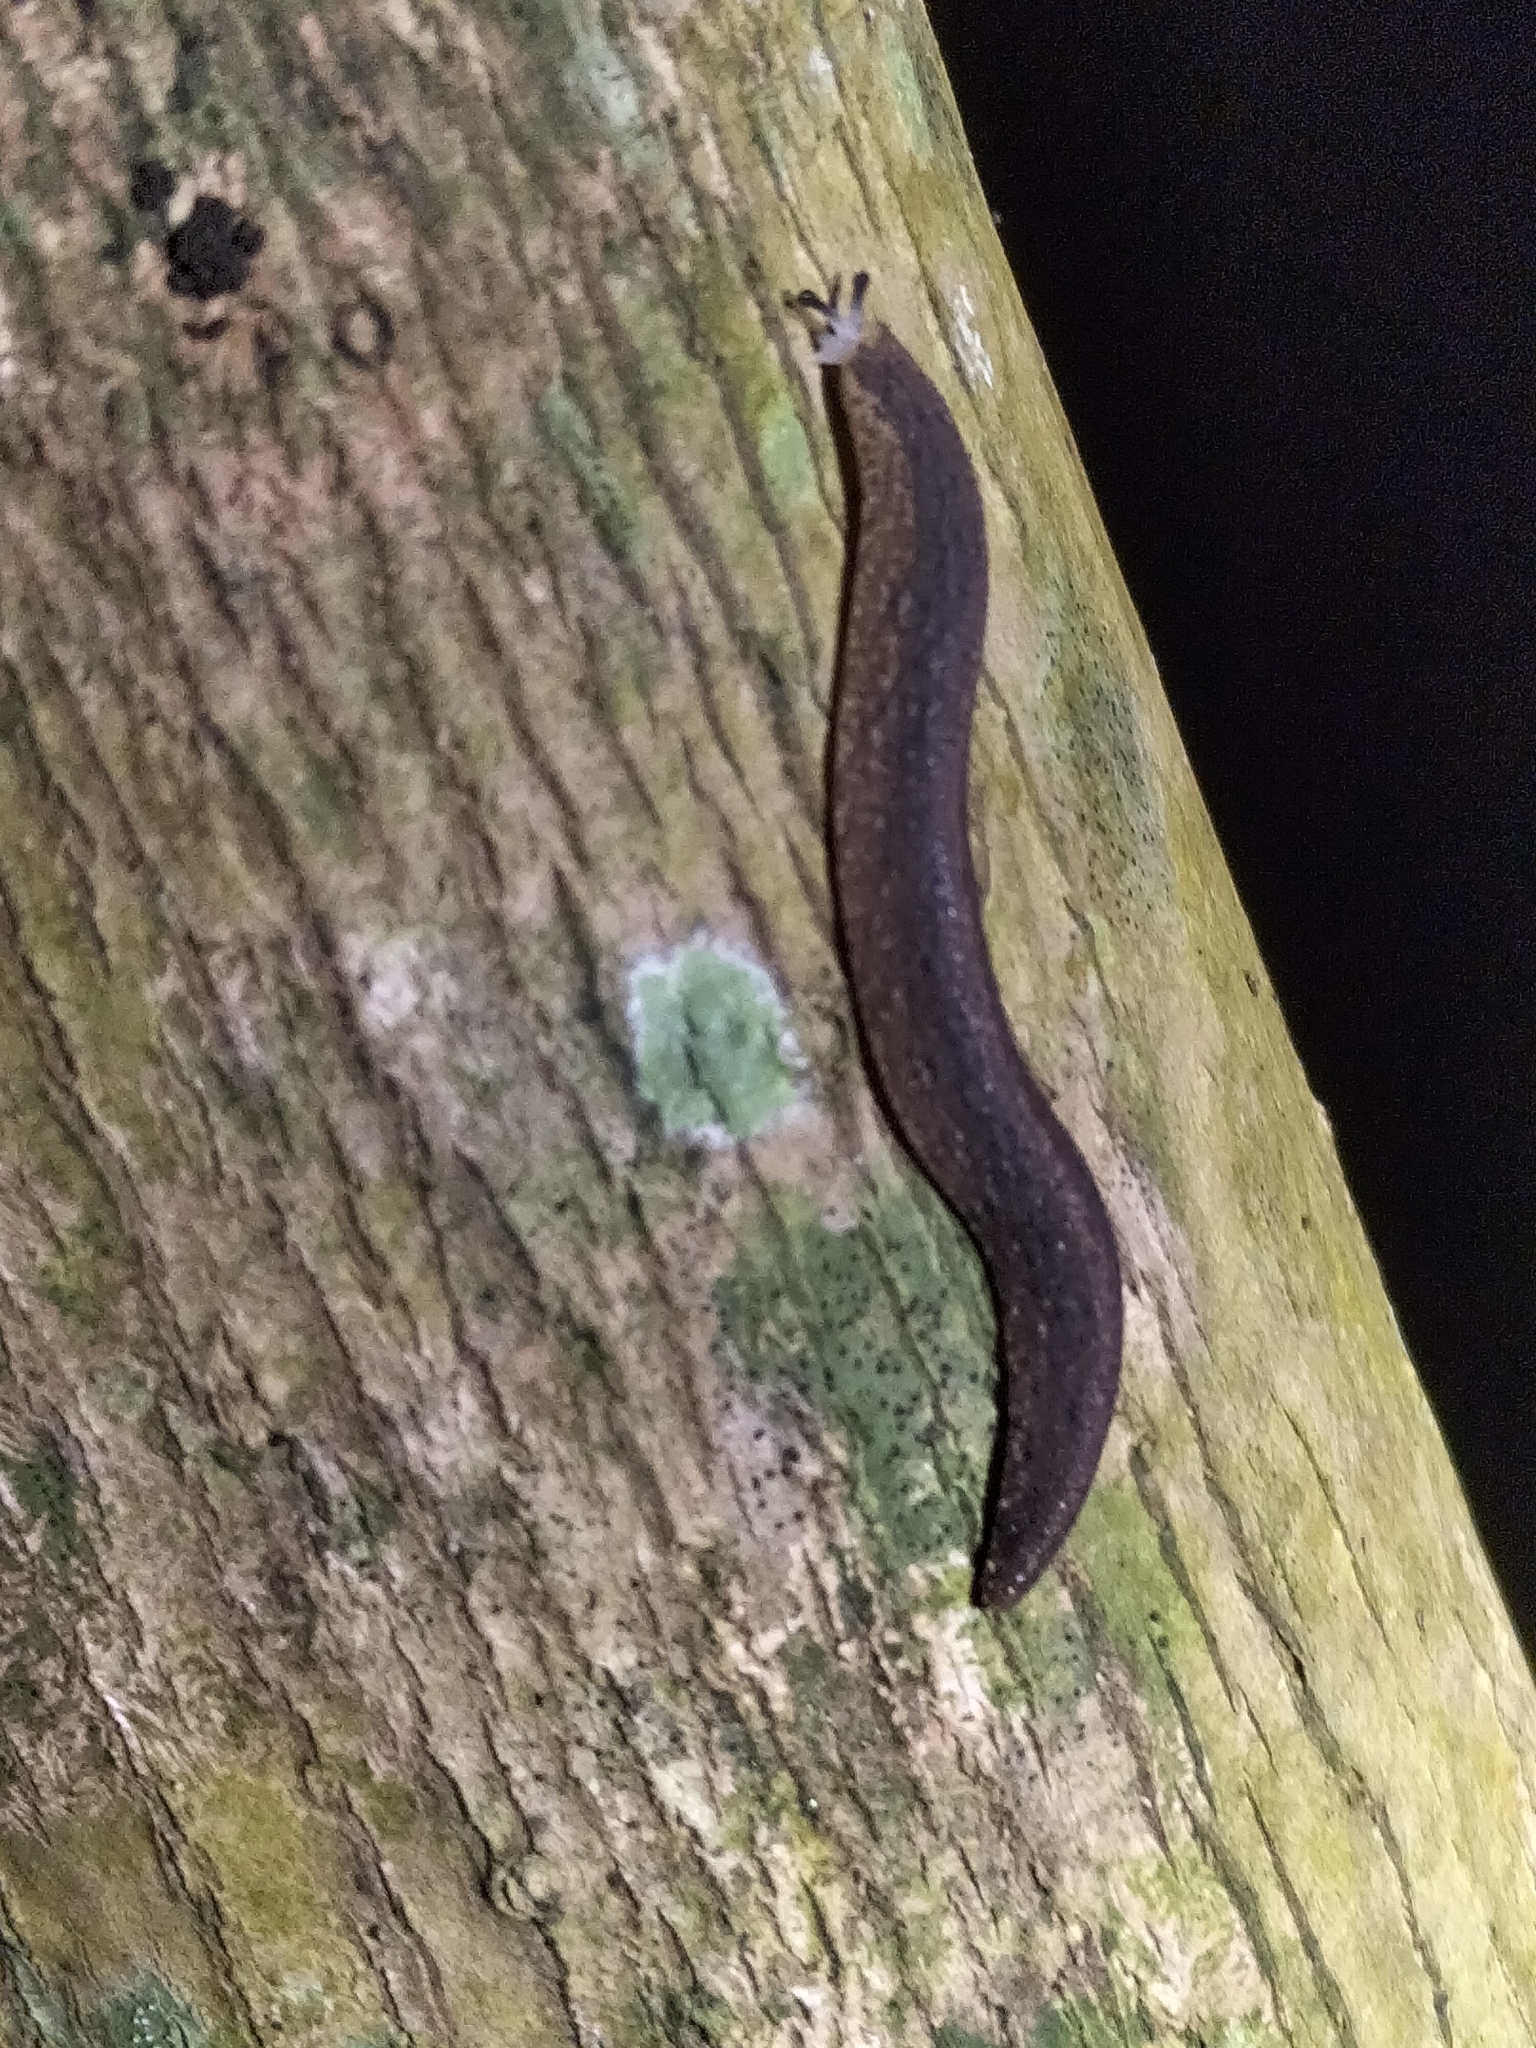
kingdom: Animalia
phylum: Mollusca
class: Gastropoda
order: Systellommatophora
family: Rathouisiidae
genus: Atopos
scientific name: Atopos australis
